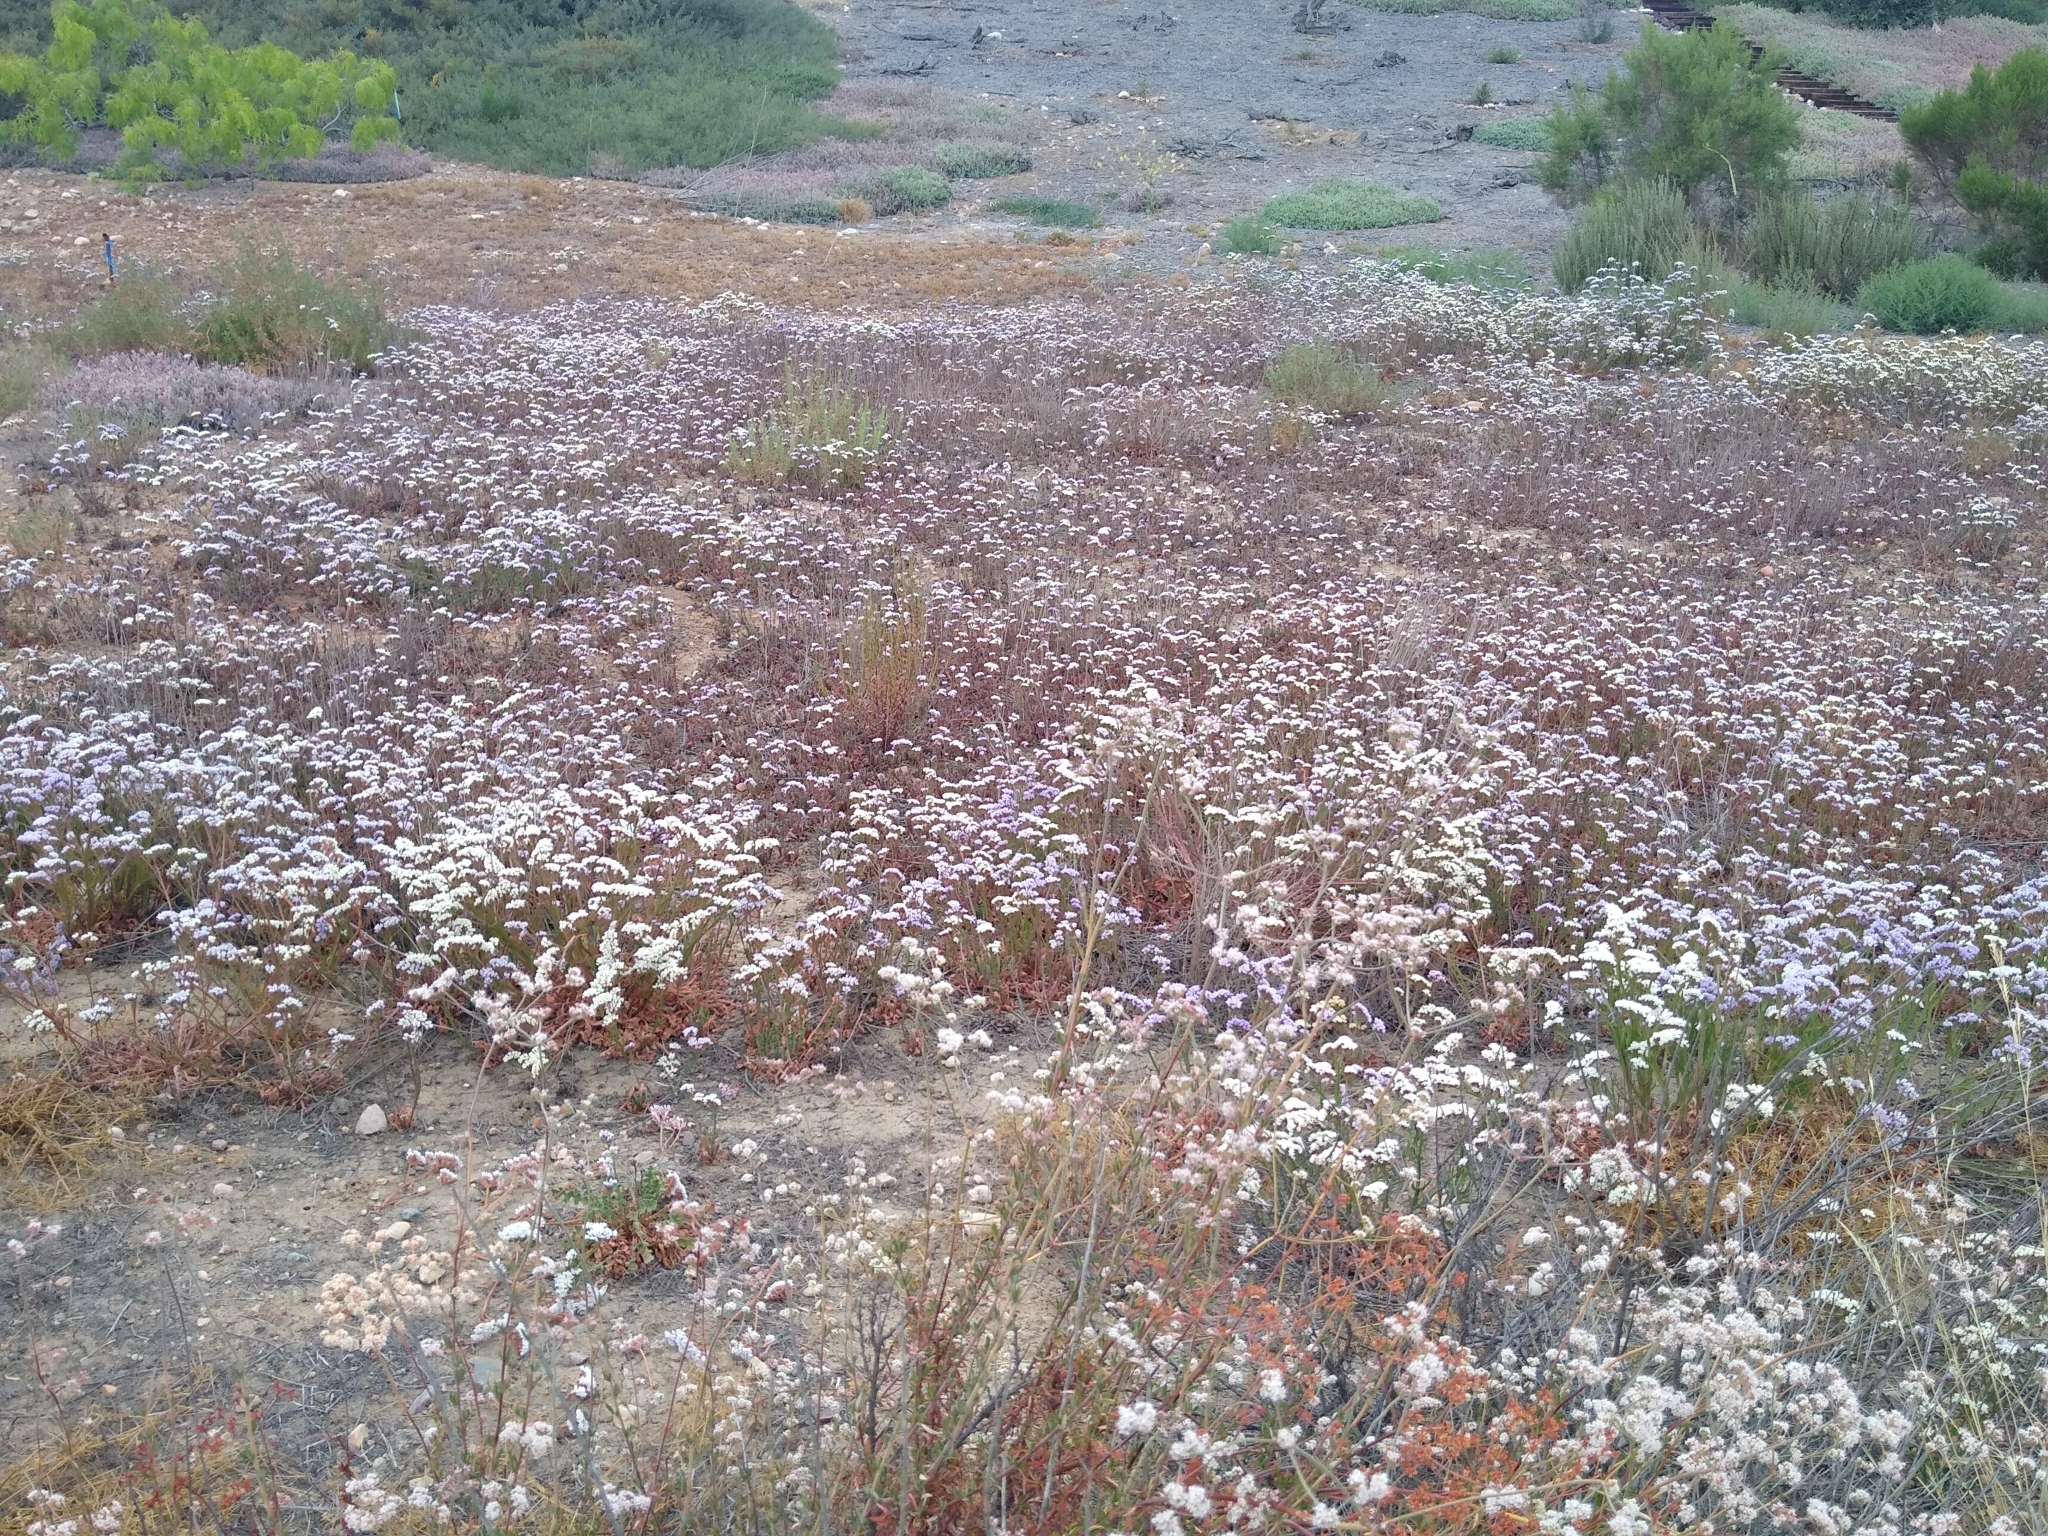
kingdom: Plantae
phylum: Tracheophyta
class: Magnoliopsida
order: Caryophyllales
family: Plumbaginaceae
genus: Limonium
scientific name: Limonium sinuatum
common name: Statice
